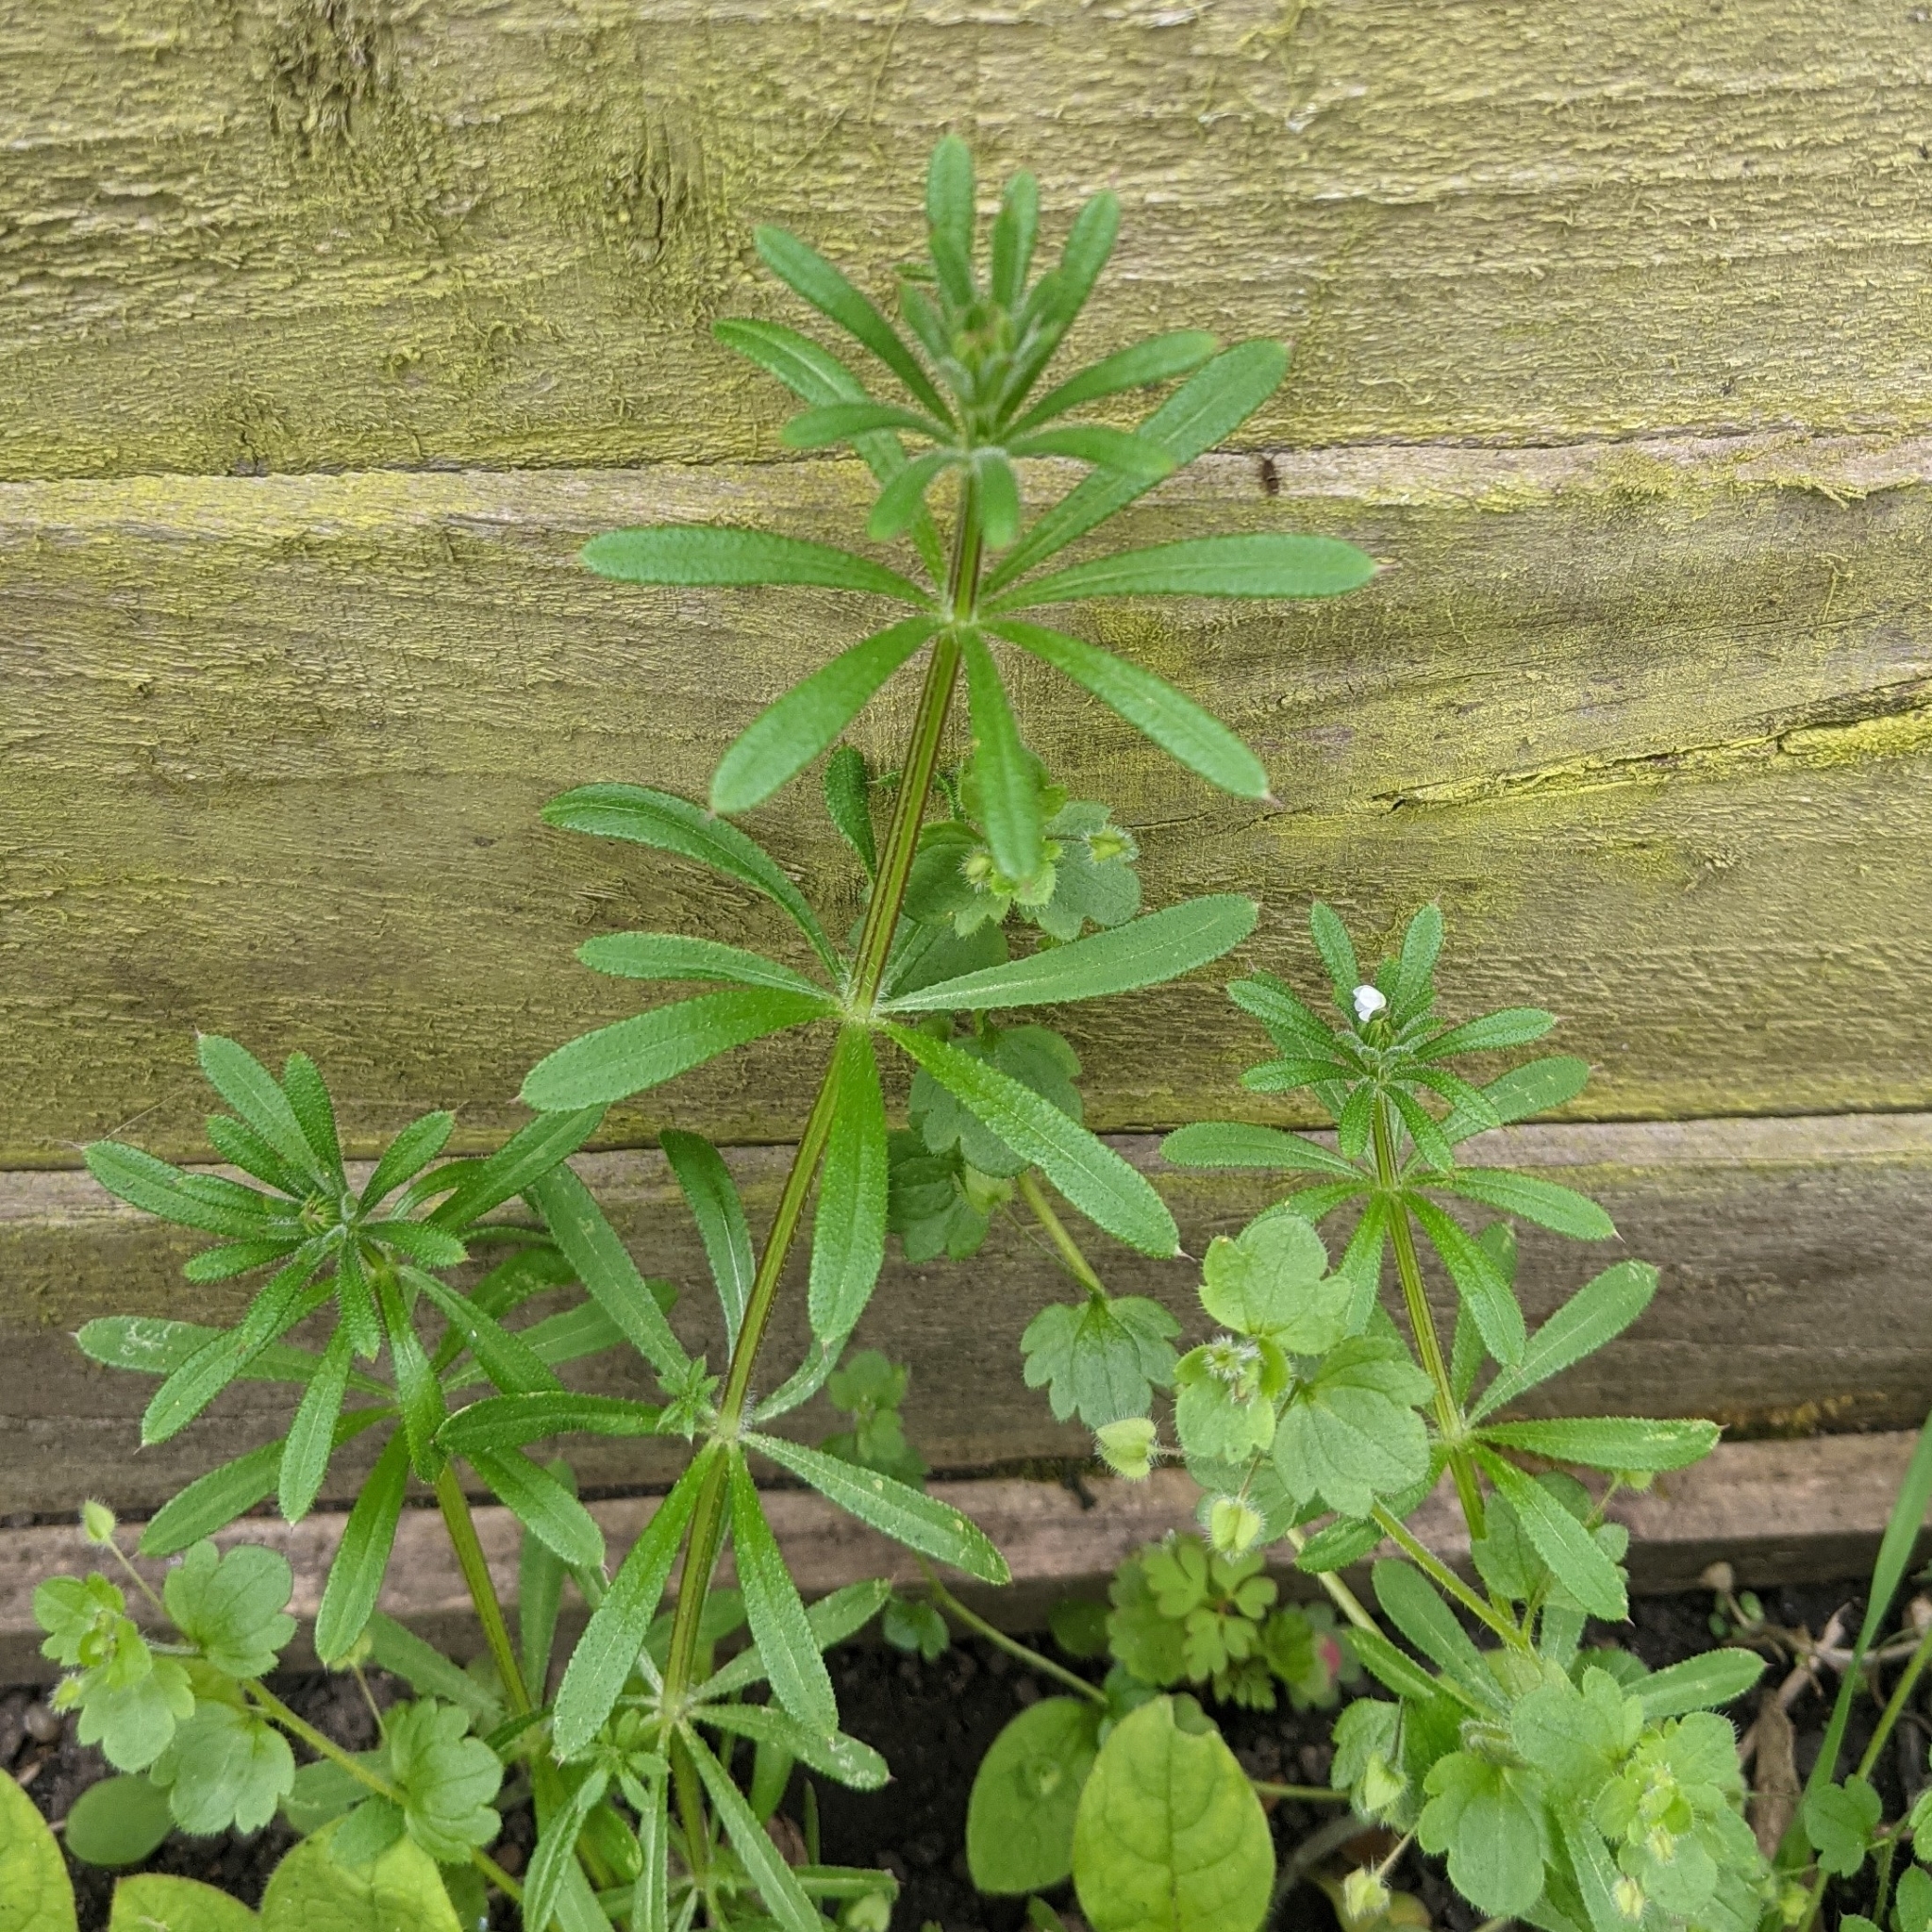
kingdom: Plantae
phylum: Tracheophyta
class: Magnoliopsida
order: Gentianales
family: Rubiaceae
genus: Galium
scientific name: Galium aparine
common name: Cleavers
